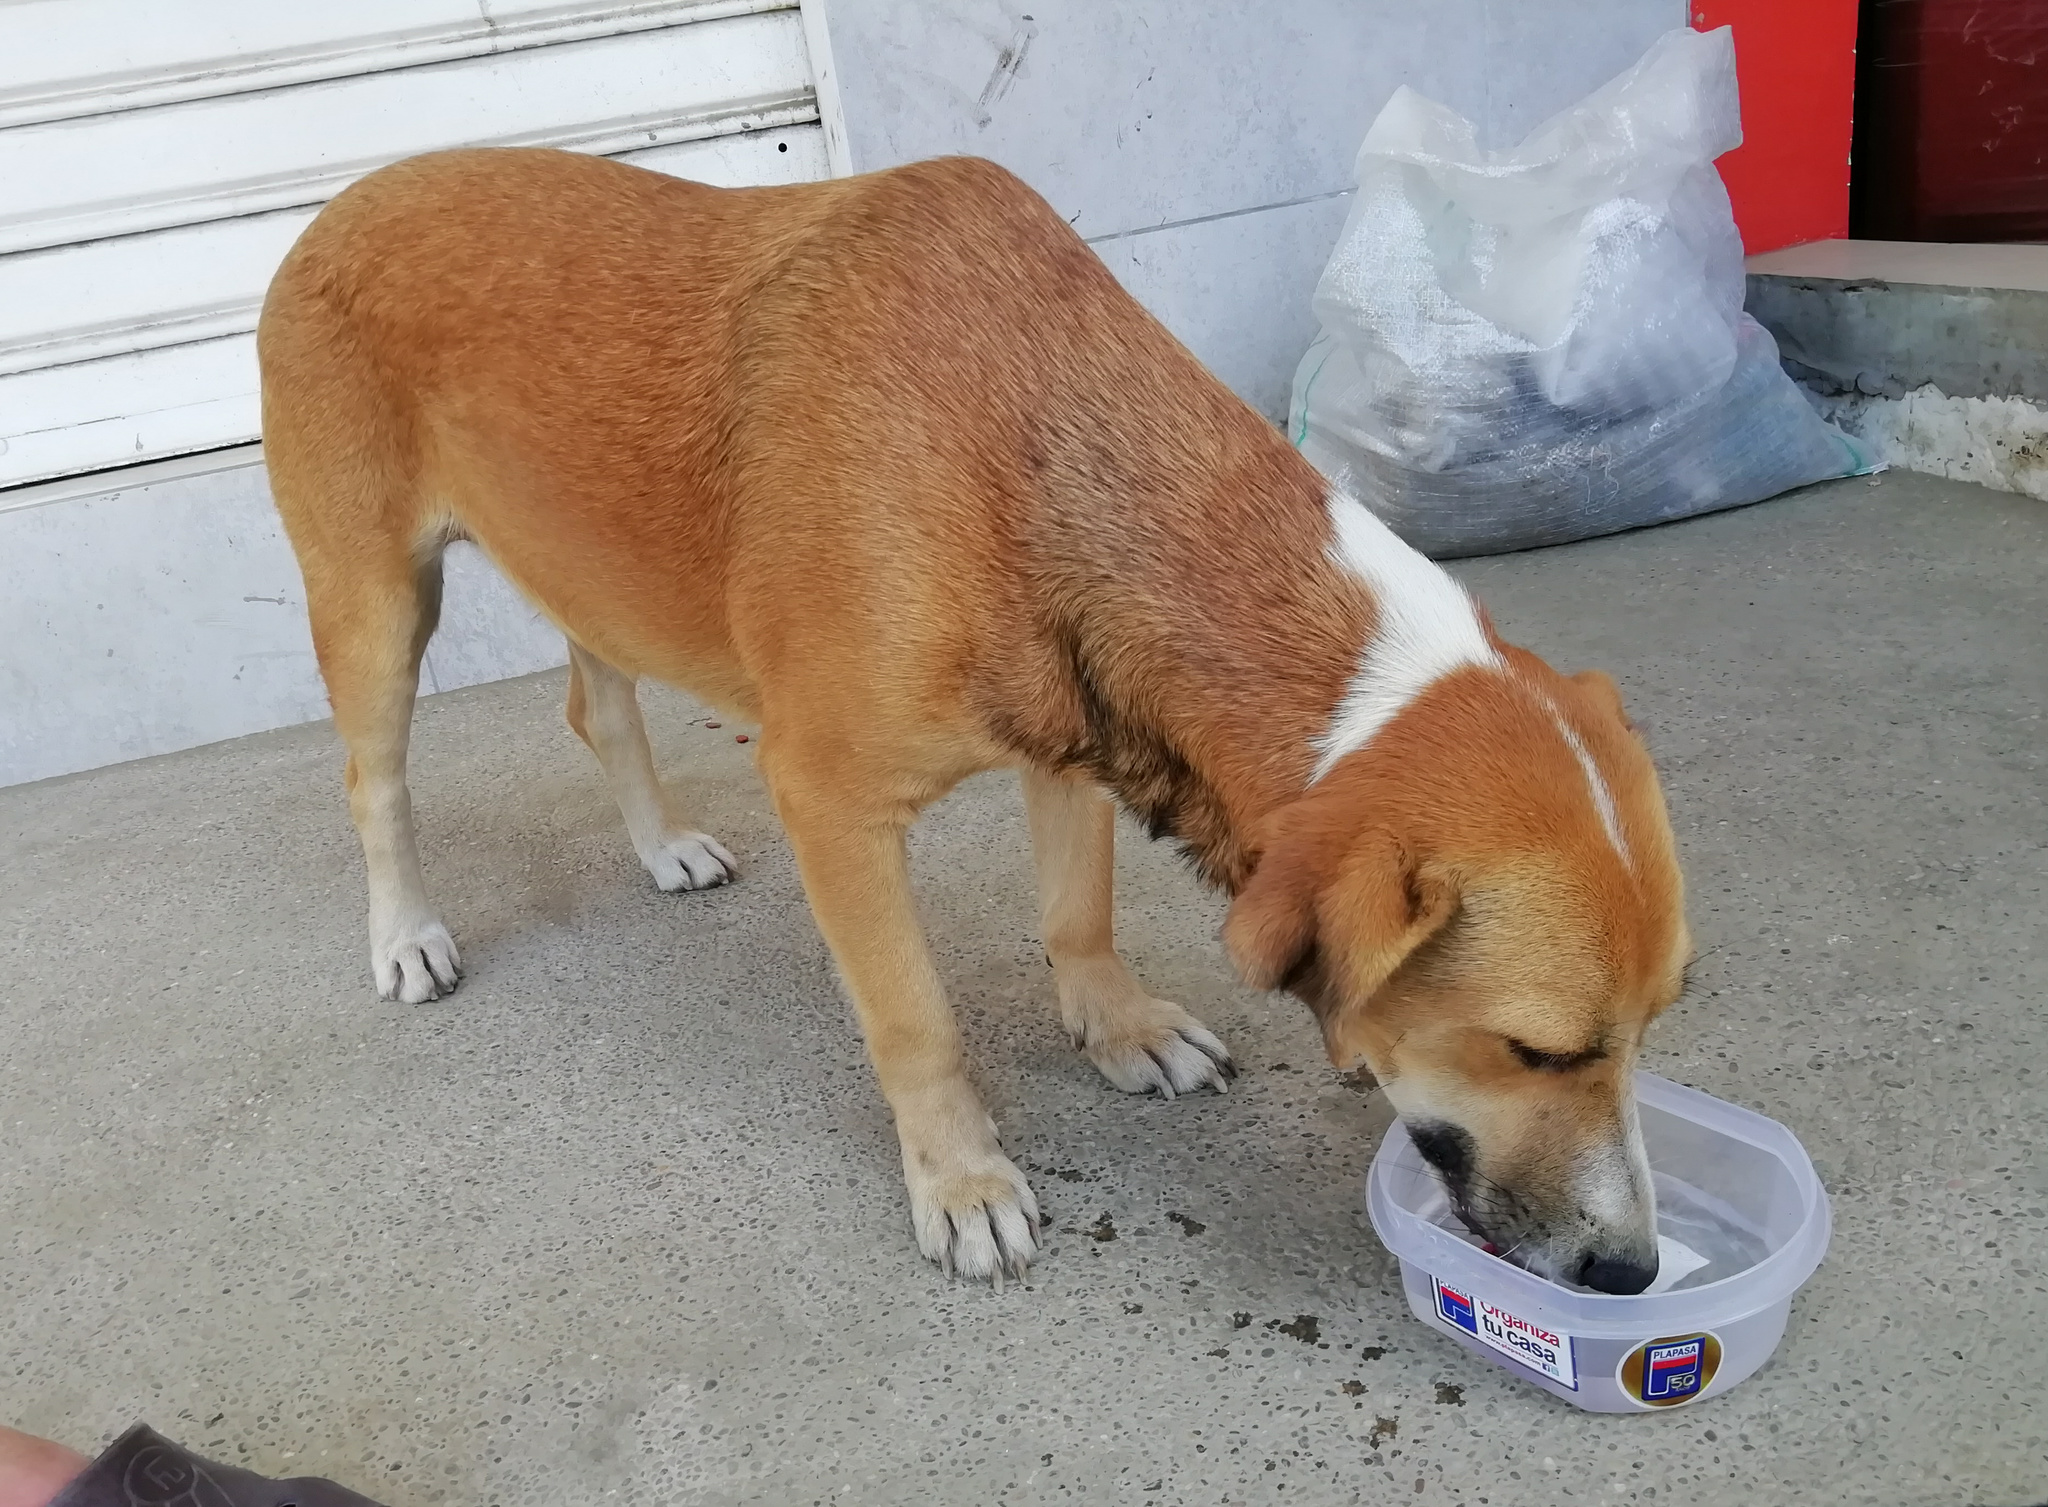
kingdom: Animalia
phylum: Chordata
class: Mammalia
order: Carnivora
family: Canidae
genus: Canis
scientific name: Canis lupus
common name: Gray wolf
